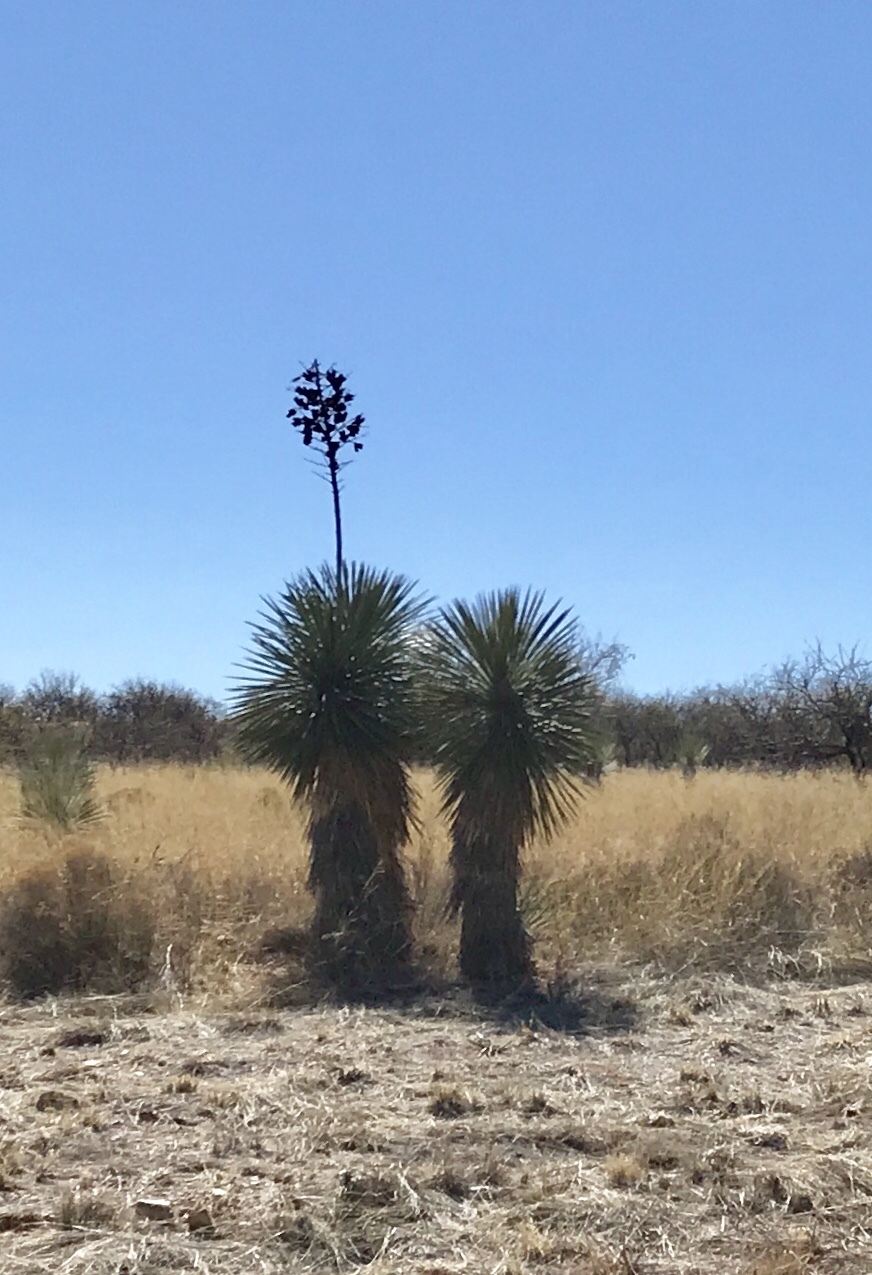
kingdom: Plantae
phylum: Tracheophyta
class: Liliopsida
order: Asparagales
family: Asparagaceae
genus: Yucca
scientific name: Yucca elata
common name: Palmella
